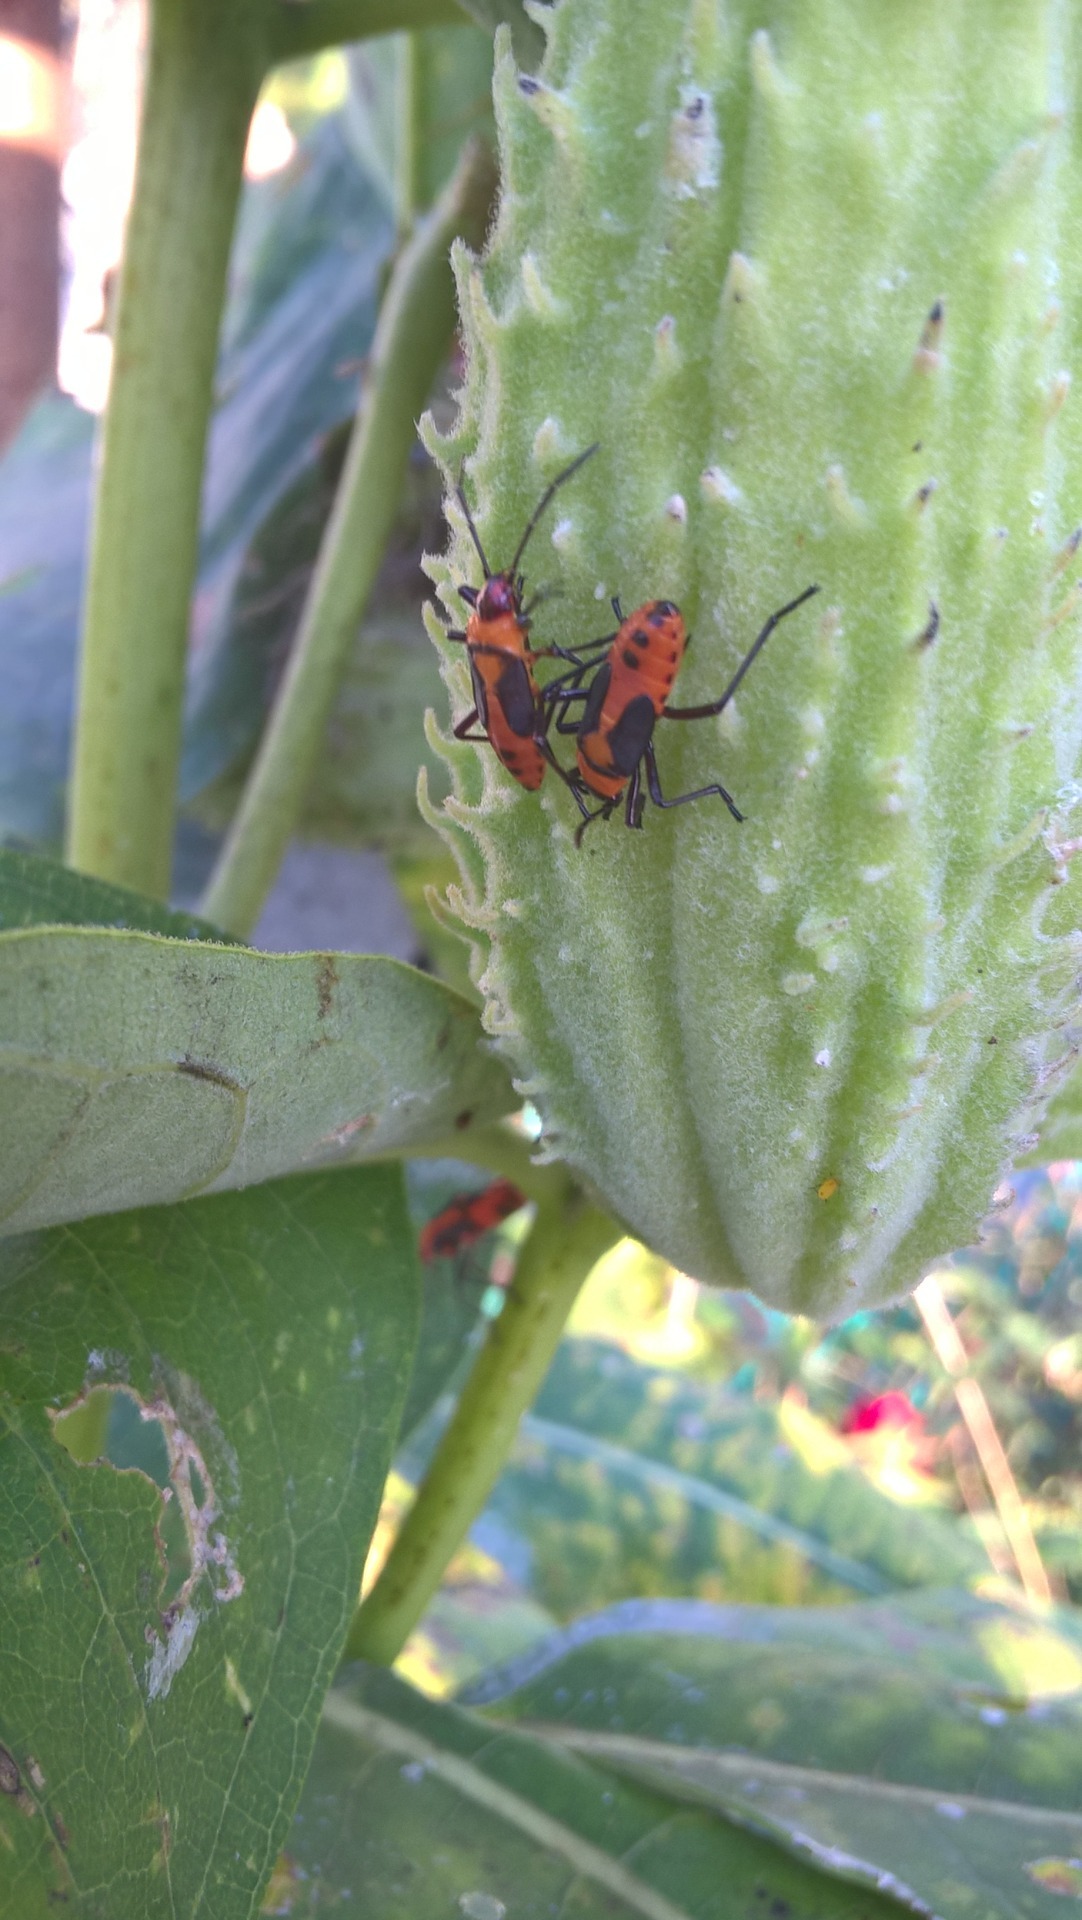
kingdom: Animalia
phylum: Arthropoda
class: Insecta
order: Hemiptera
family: Lygaeidae
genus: Oncopeltus
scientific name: Oncopeltus fasciatus
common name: Large milkweed bug
